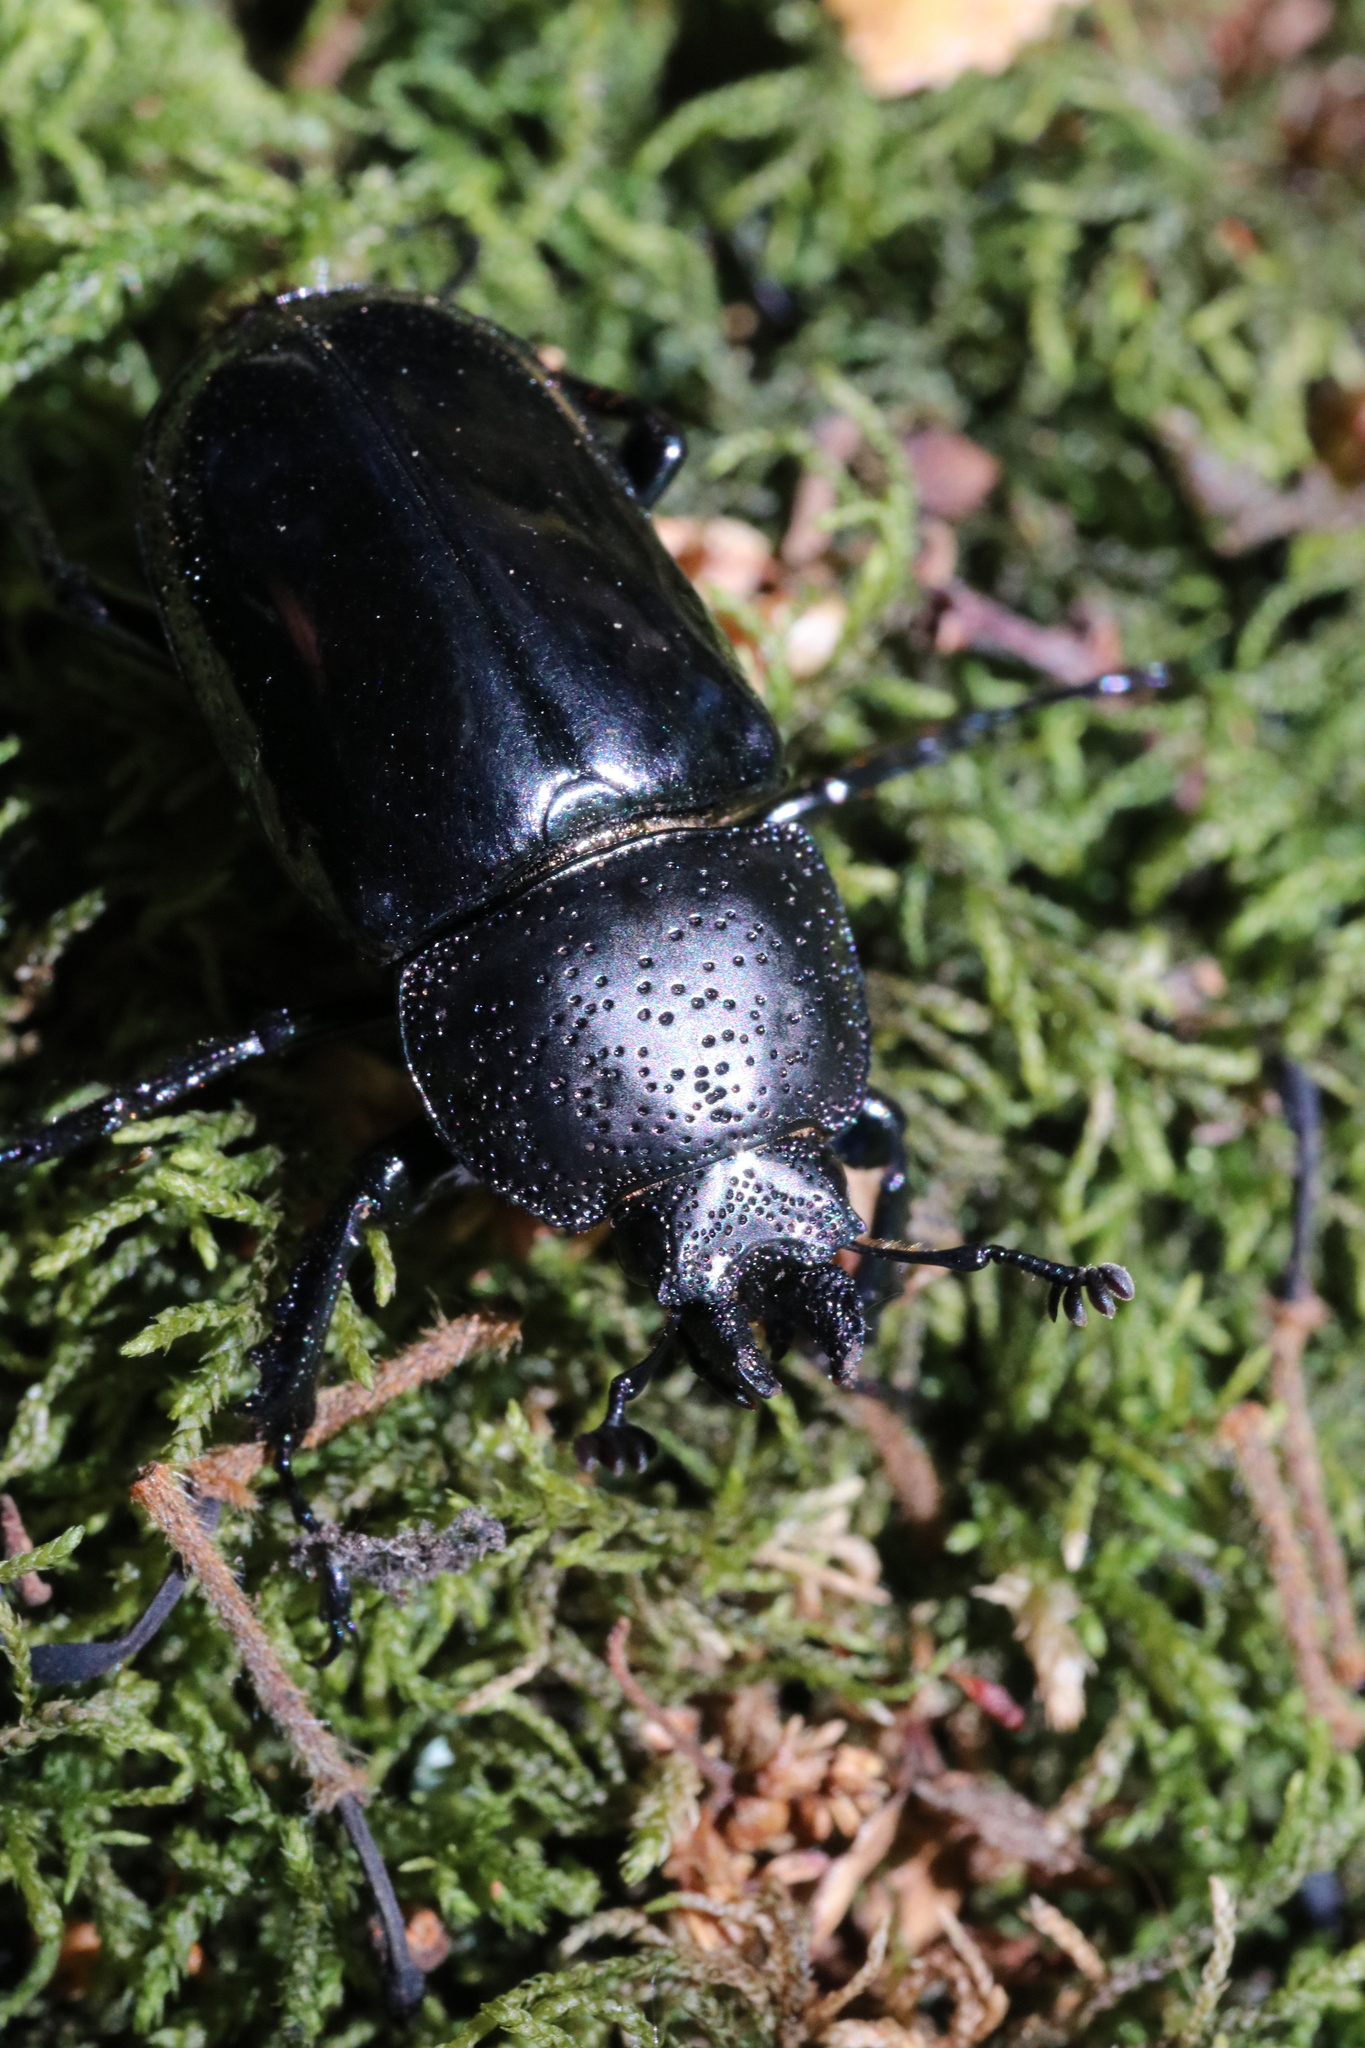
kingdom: Animalia
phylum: Arthropoda
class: Insecta
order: Coleoptera
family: Lucanidae
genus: Streptocerus
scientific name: Streptocerus speciosus
